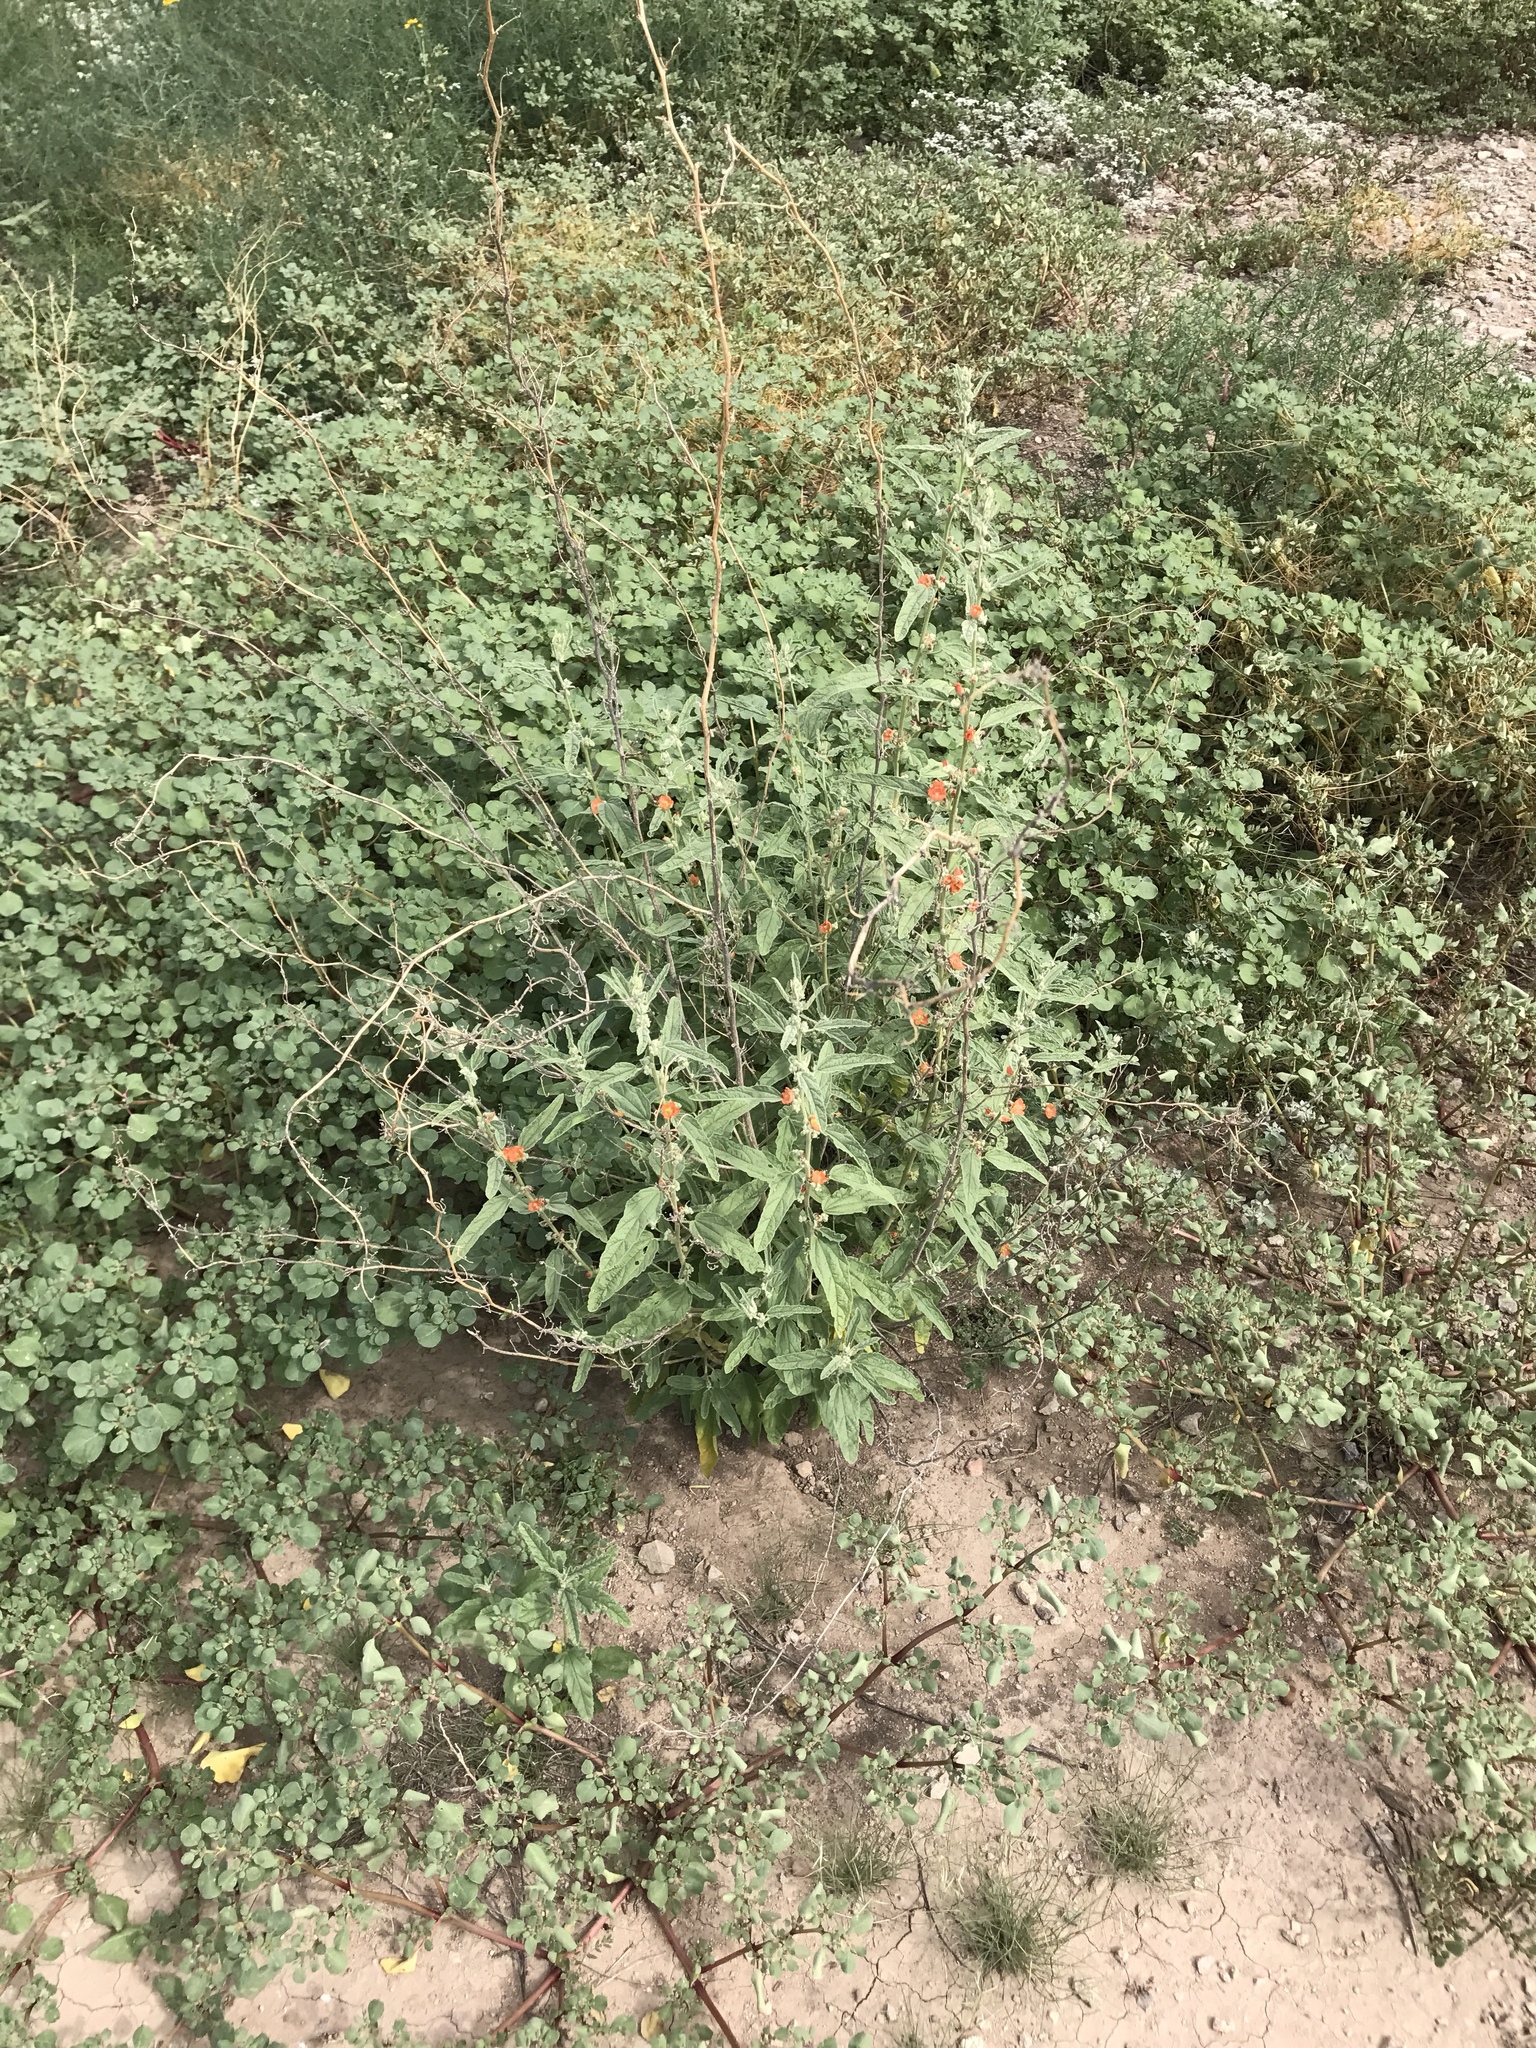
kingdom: Plantae
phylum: Tracheophyta
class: Magnoliopsida
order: Malvales
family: Malvaceae
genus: Sphaeralcea
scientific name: Sphaeralcea angustifolia
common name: Copper globe-mallow
